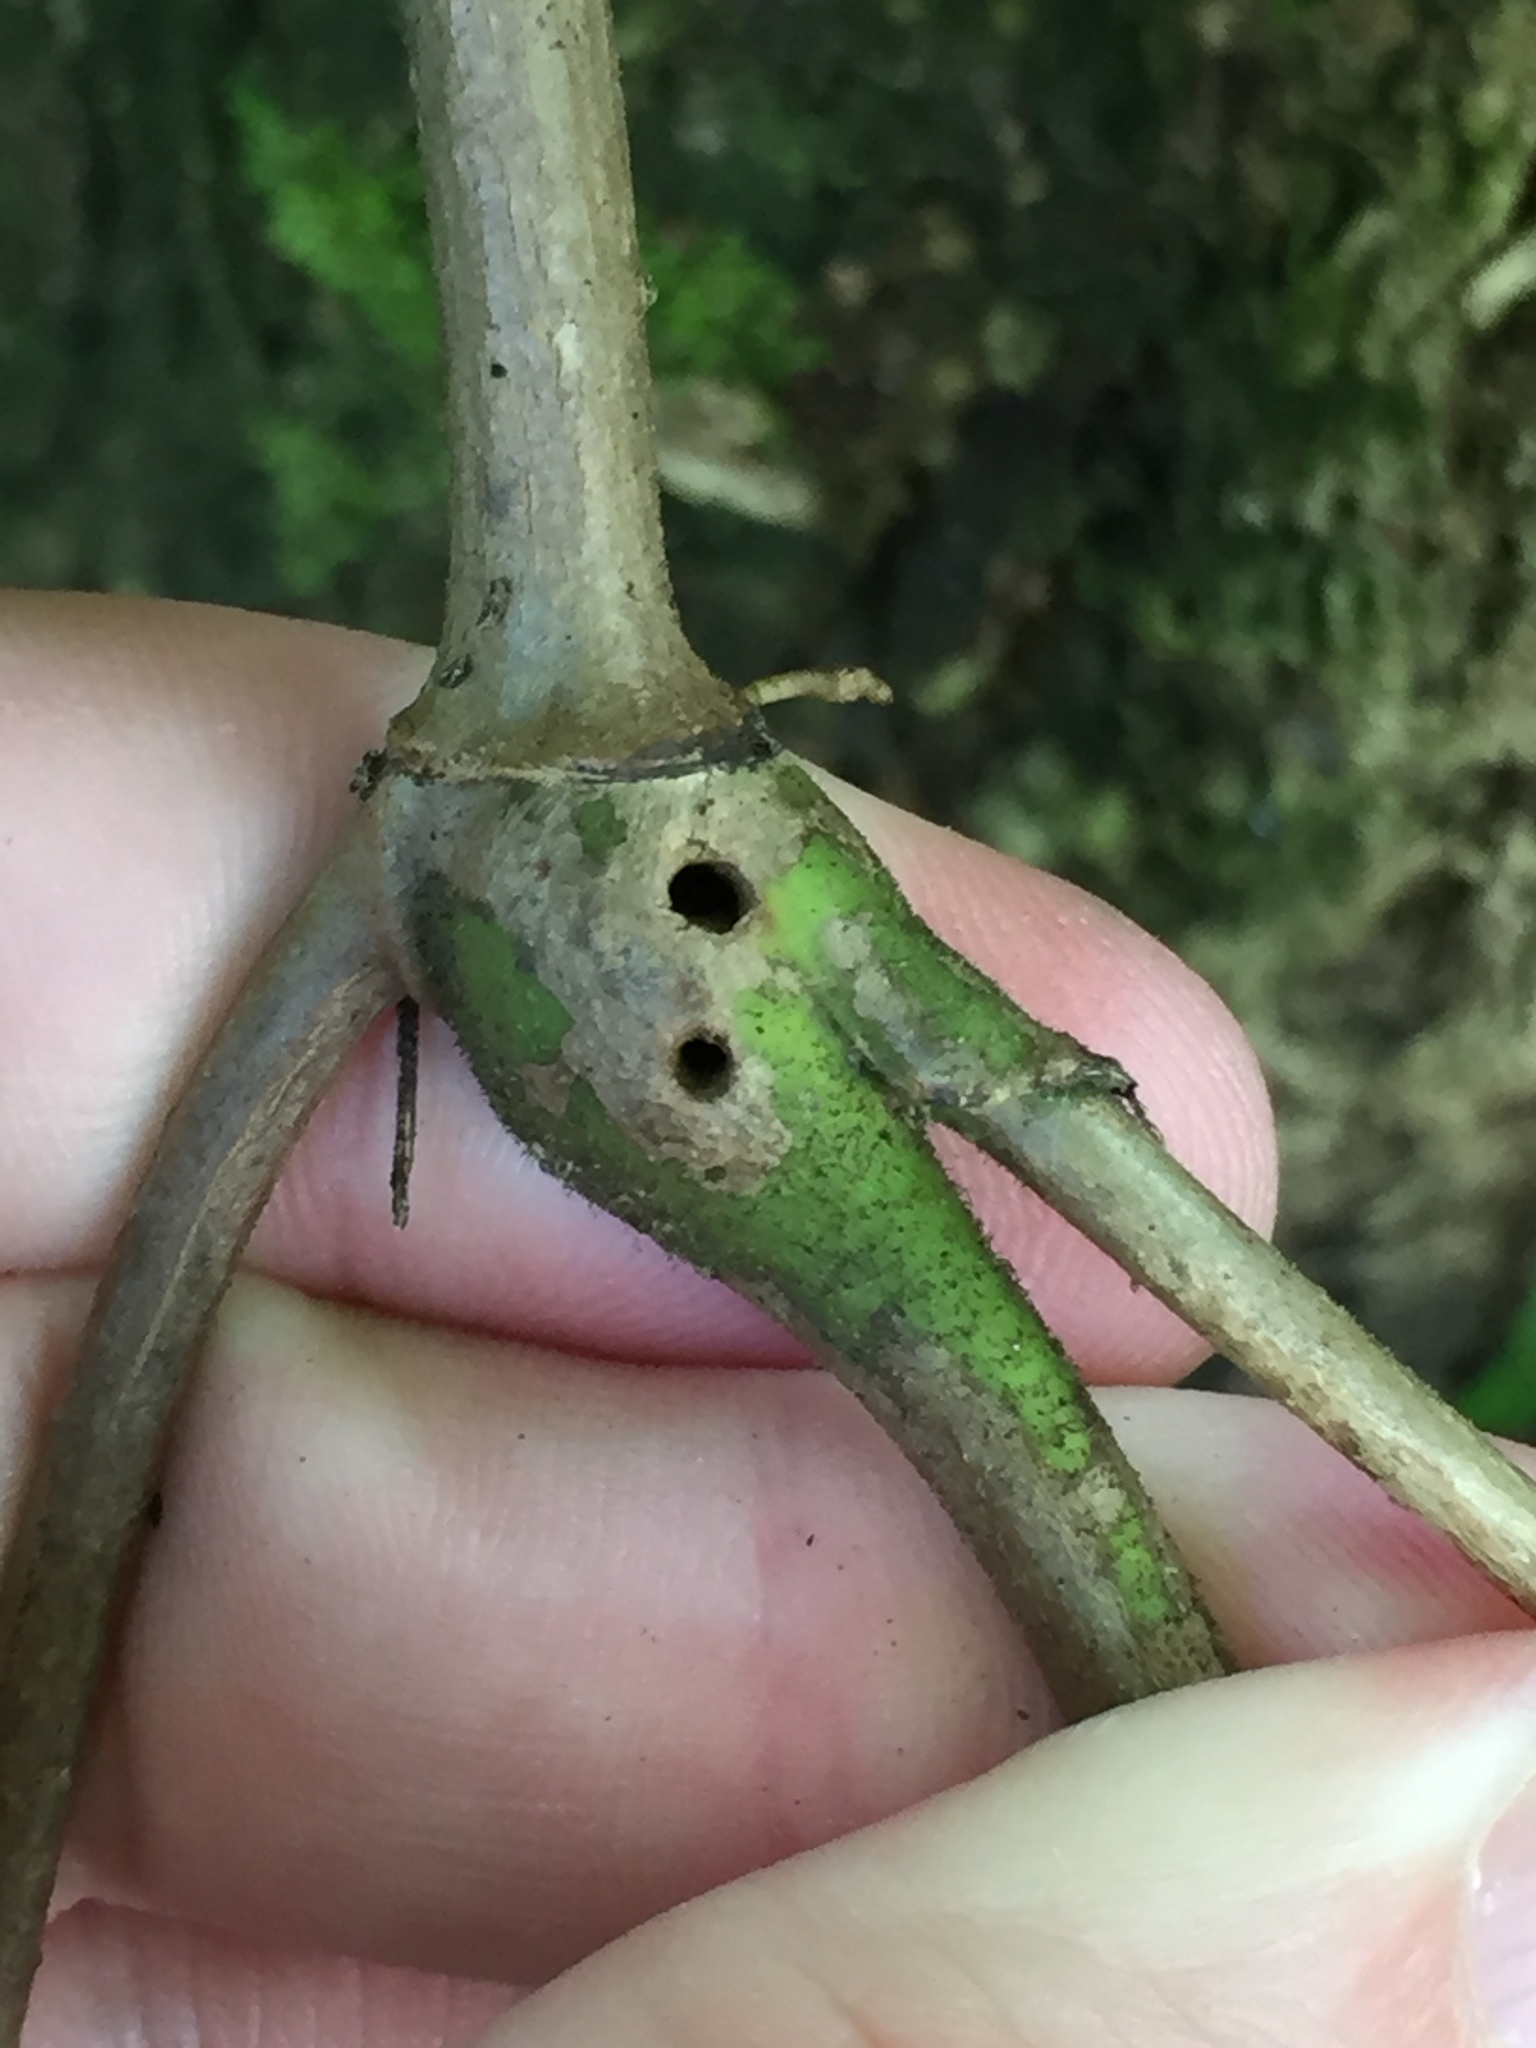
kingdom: Animalia
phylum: Arthropoda
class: Insecta
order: Diptera
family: Tephritidae
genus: Procecidochares
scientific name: Procecidochares utilis
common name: Eupatorium gall fly
